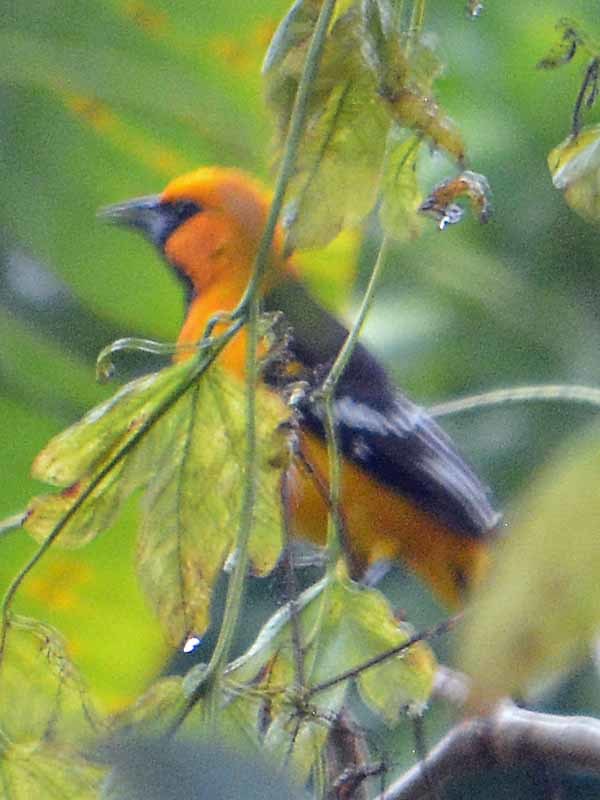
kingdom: Animalia
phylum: Chordata
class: Aves
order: Passeriformes
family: Icteridae
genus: Icterus
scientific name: Icterus gularis
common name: Altamira oriole
